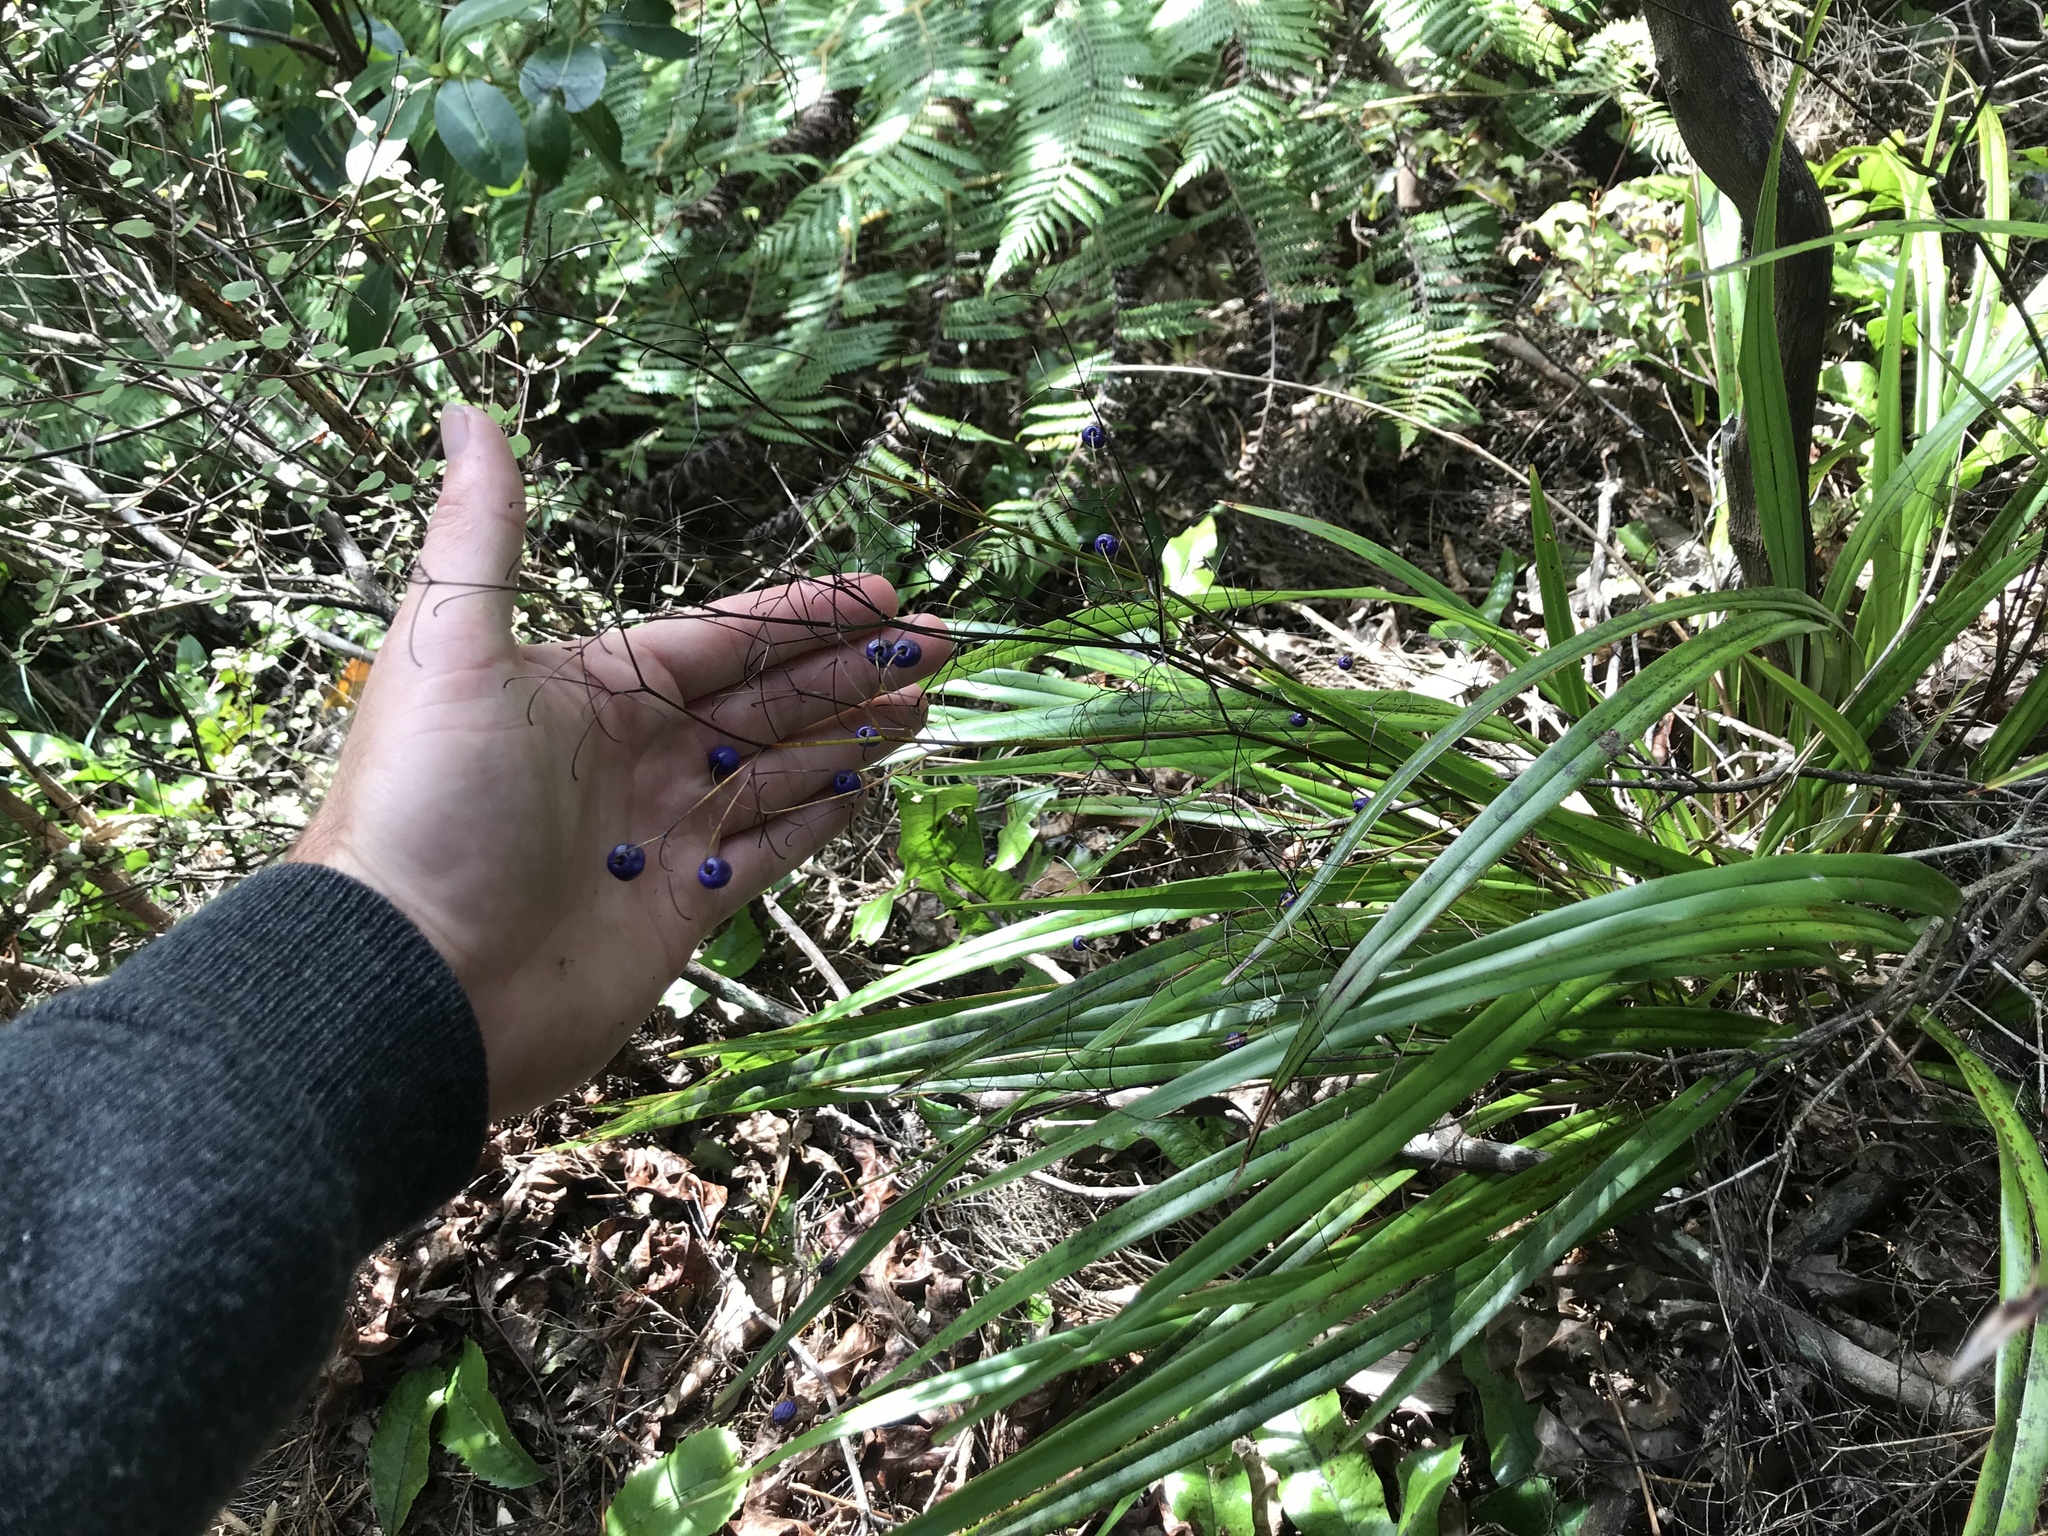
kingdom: Plantae
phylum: Tracheophyta
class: Liliopsida
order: Asparagales
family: Asphodelaceae
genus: Dianella
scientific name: Dianella nigra
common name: New zealand-blueberry
